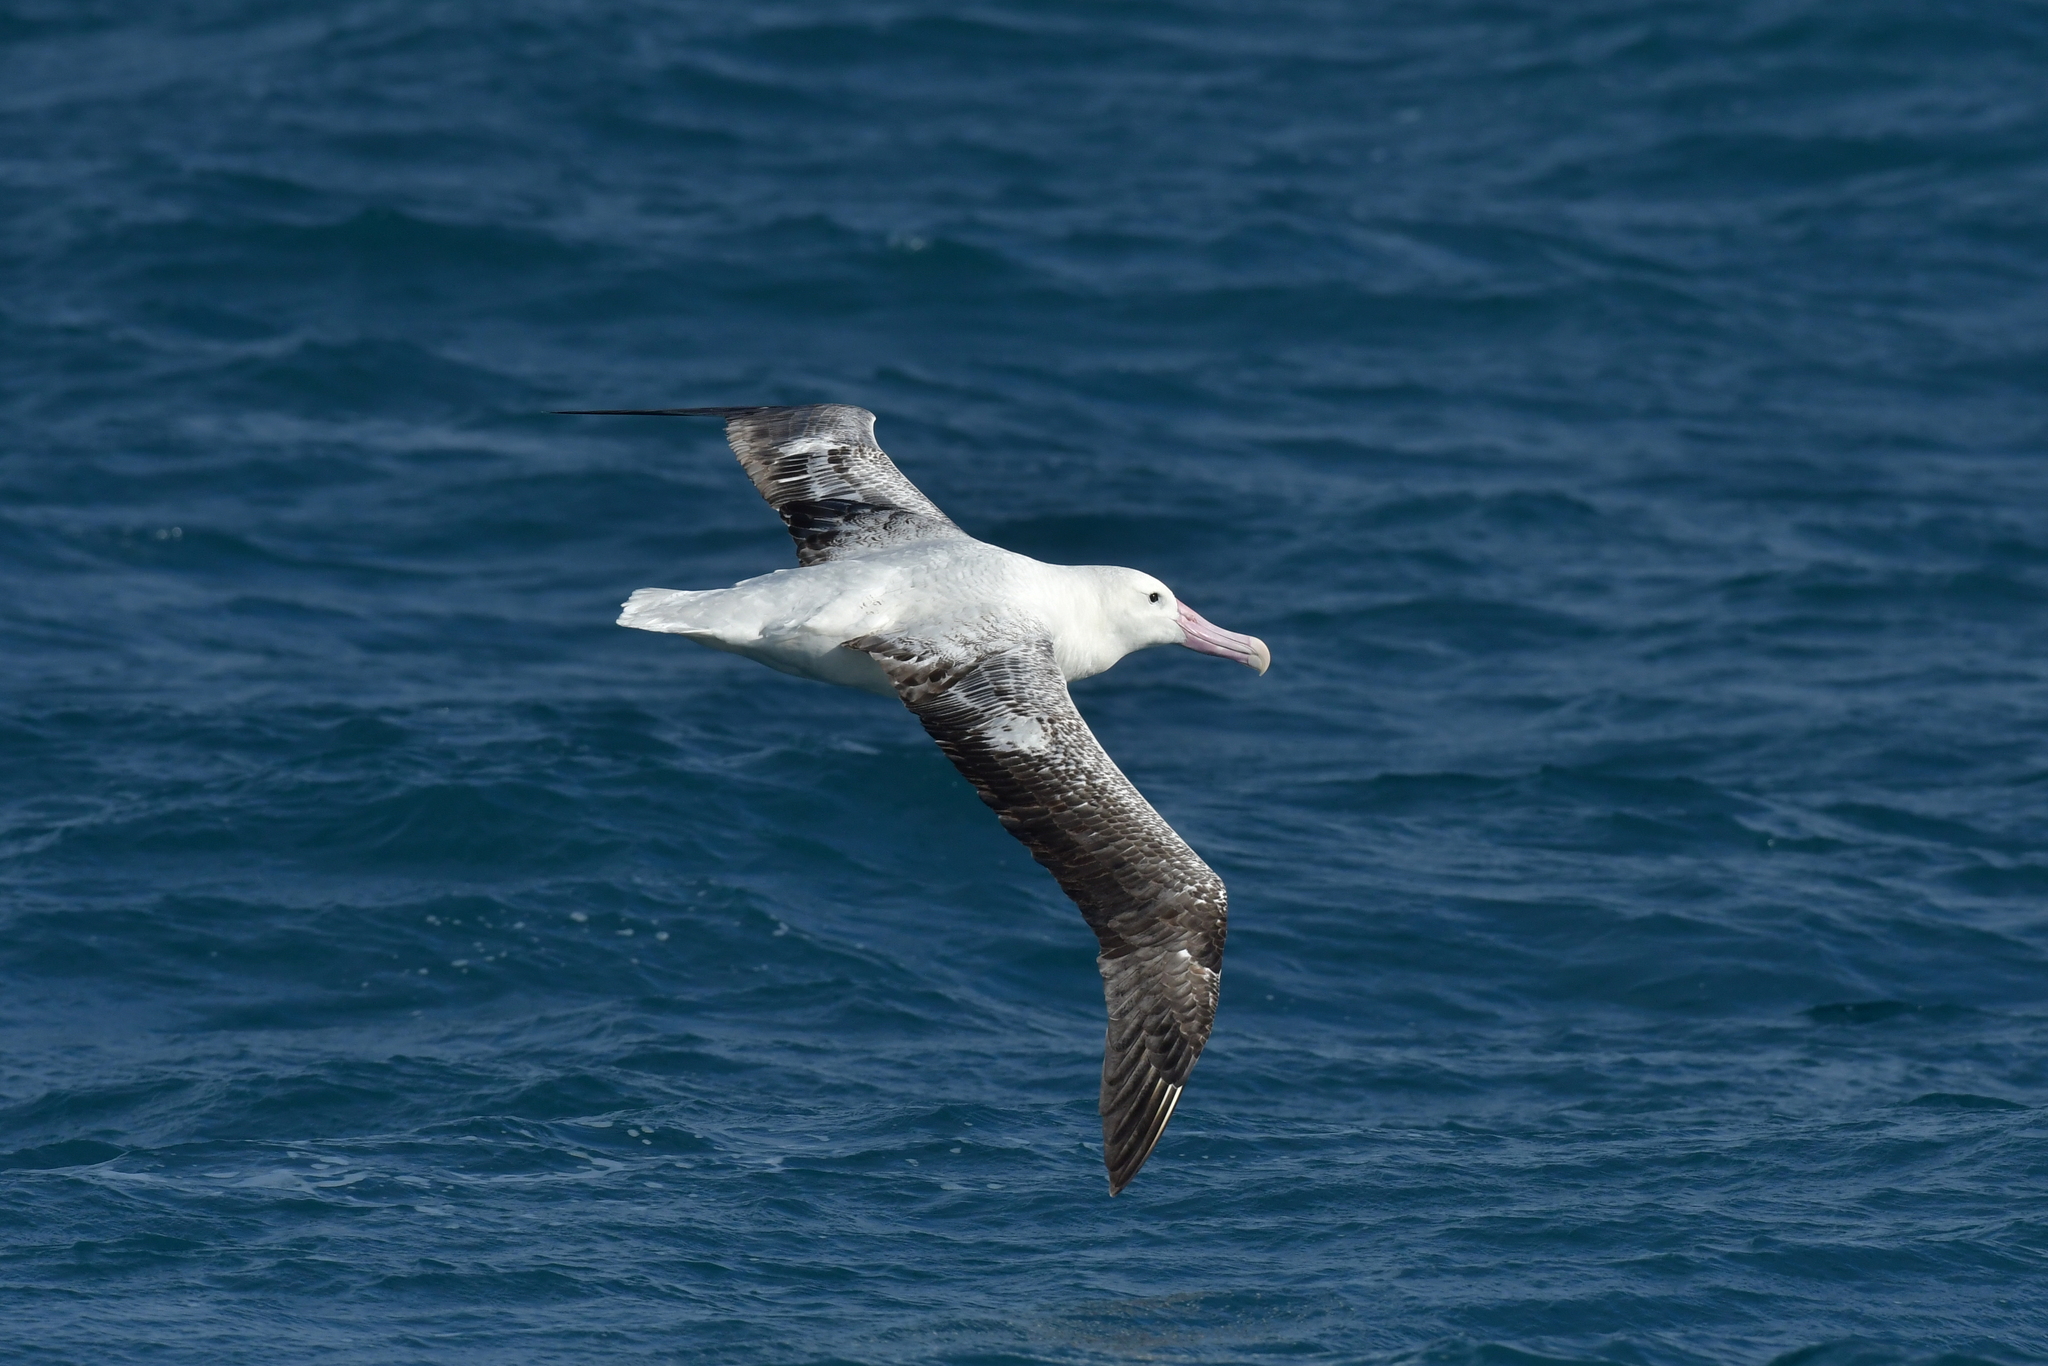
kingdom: Animalia
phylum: Chordata
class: Aves
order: Procellariiformes
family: Diomedeidae
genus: Diomedea
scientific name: Diomedea epomophora
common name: Southern royal albatross
